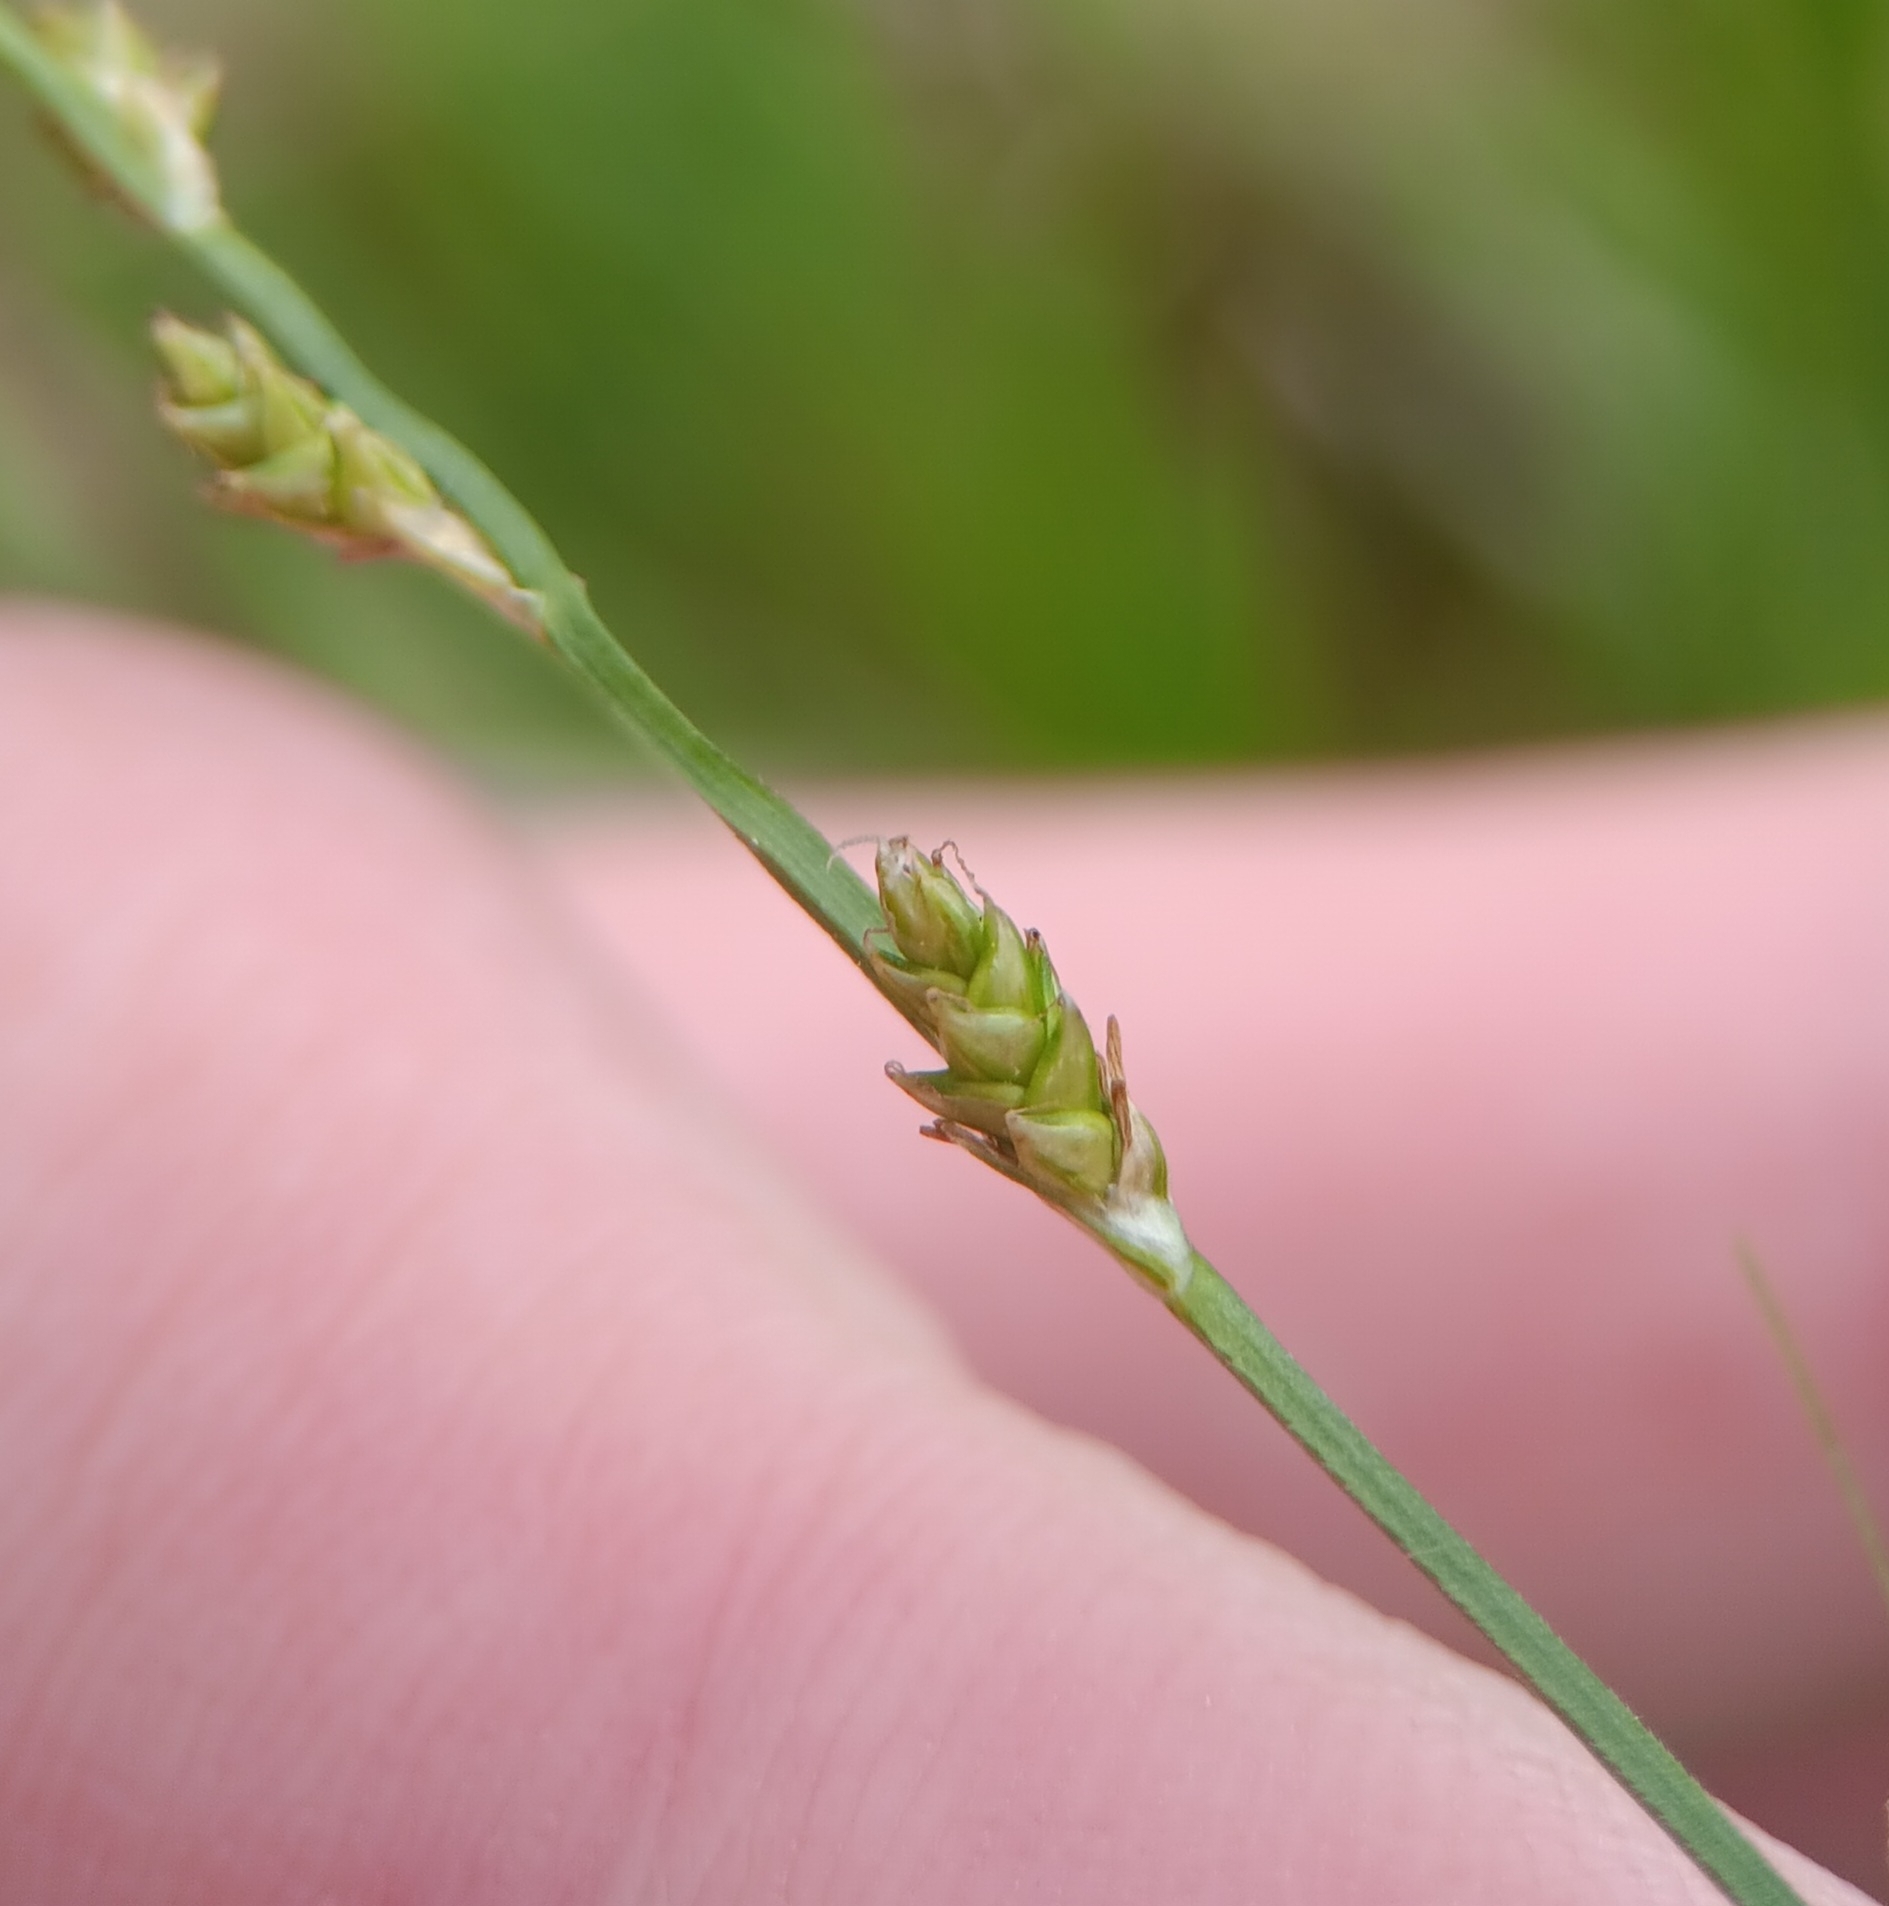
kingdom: Plantae
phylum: Tracheophyta
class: Liliopsida
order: Poales
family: Cyperaceae
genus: Carex
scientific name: Carex canescens
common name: White sedge
